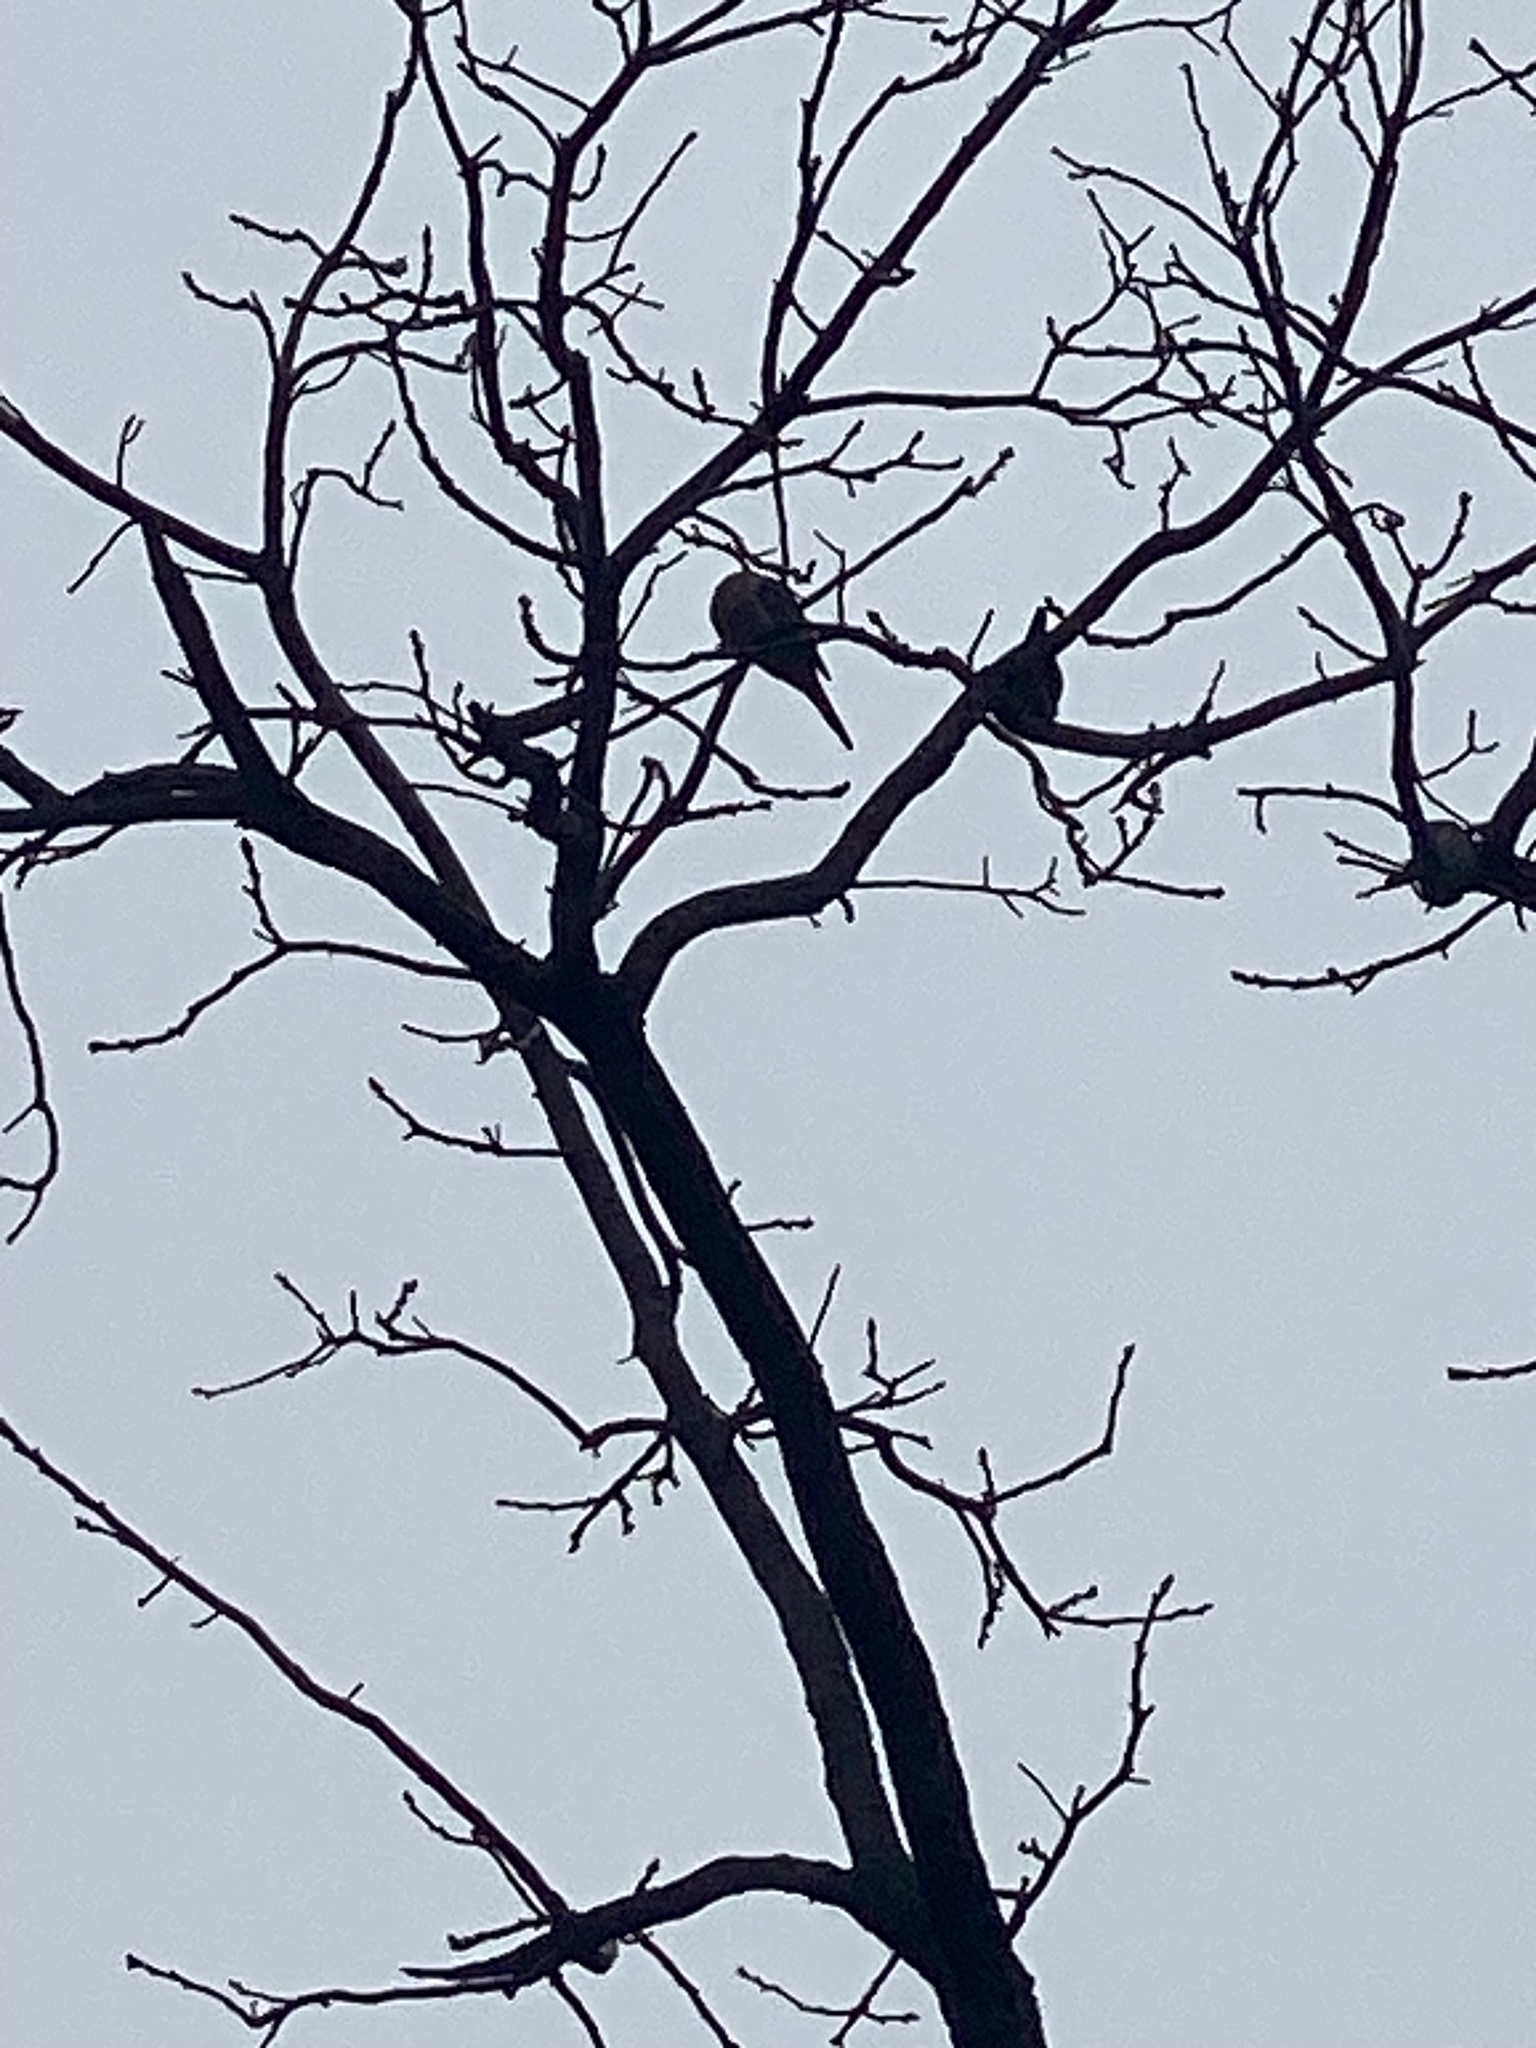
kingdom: Animalia
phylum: Chordata
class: Aves
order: Columbiformes
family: Columbidae
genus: Zenaida
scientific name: Zenaida macroura
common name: Mourning dove
